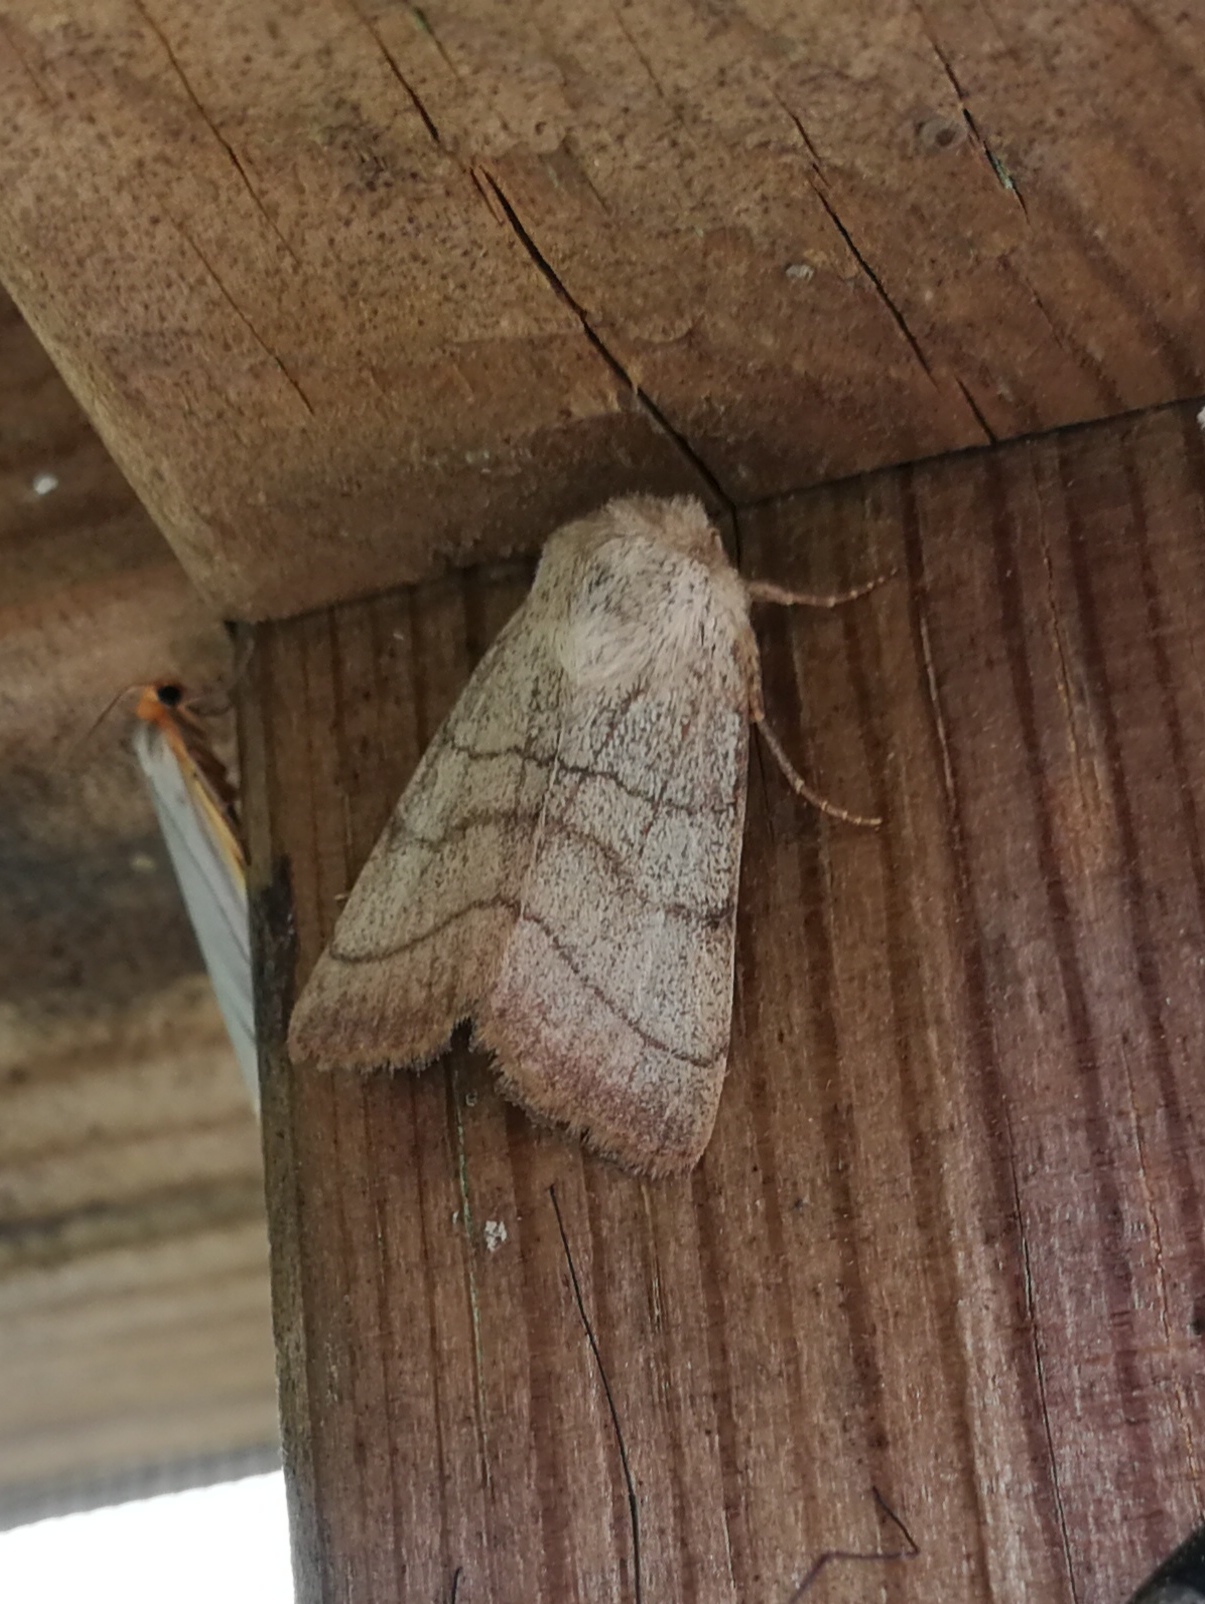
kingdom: Animalia
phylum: Arthropoda
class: Insecta
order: Lepidoptera
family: Noctuidae
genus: Charanyca
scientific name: Charanyca trigrammica
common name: Treble lines
